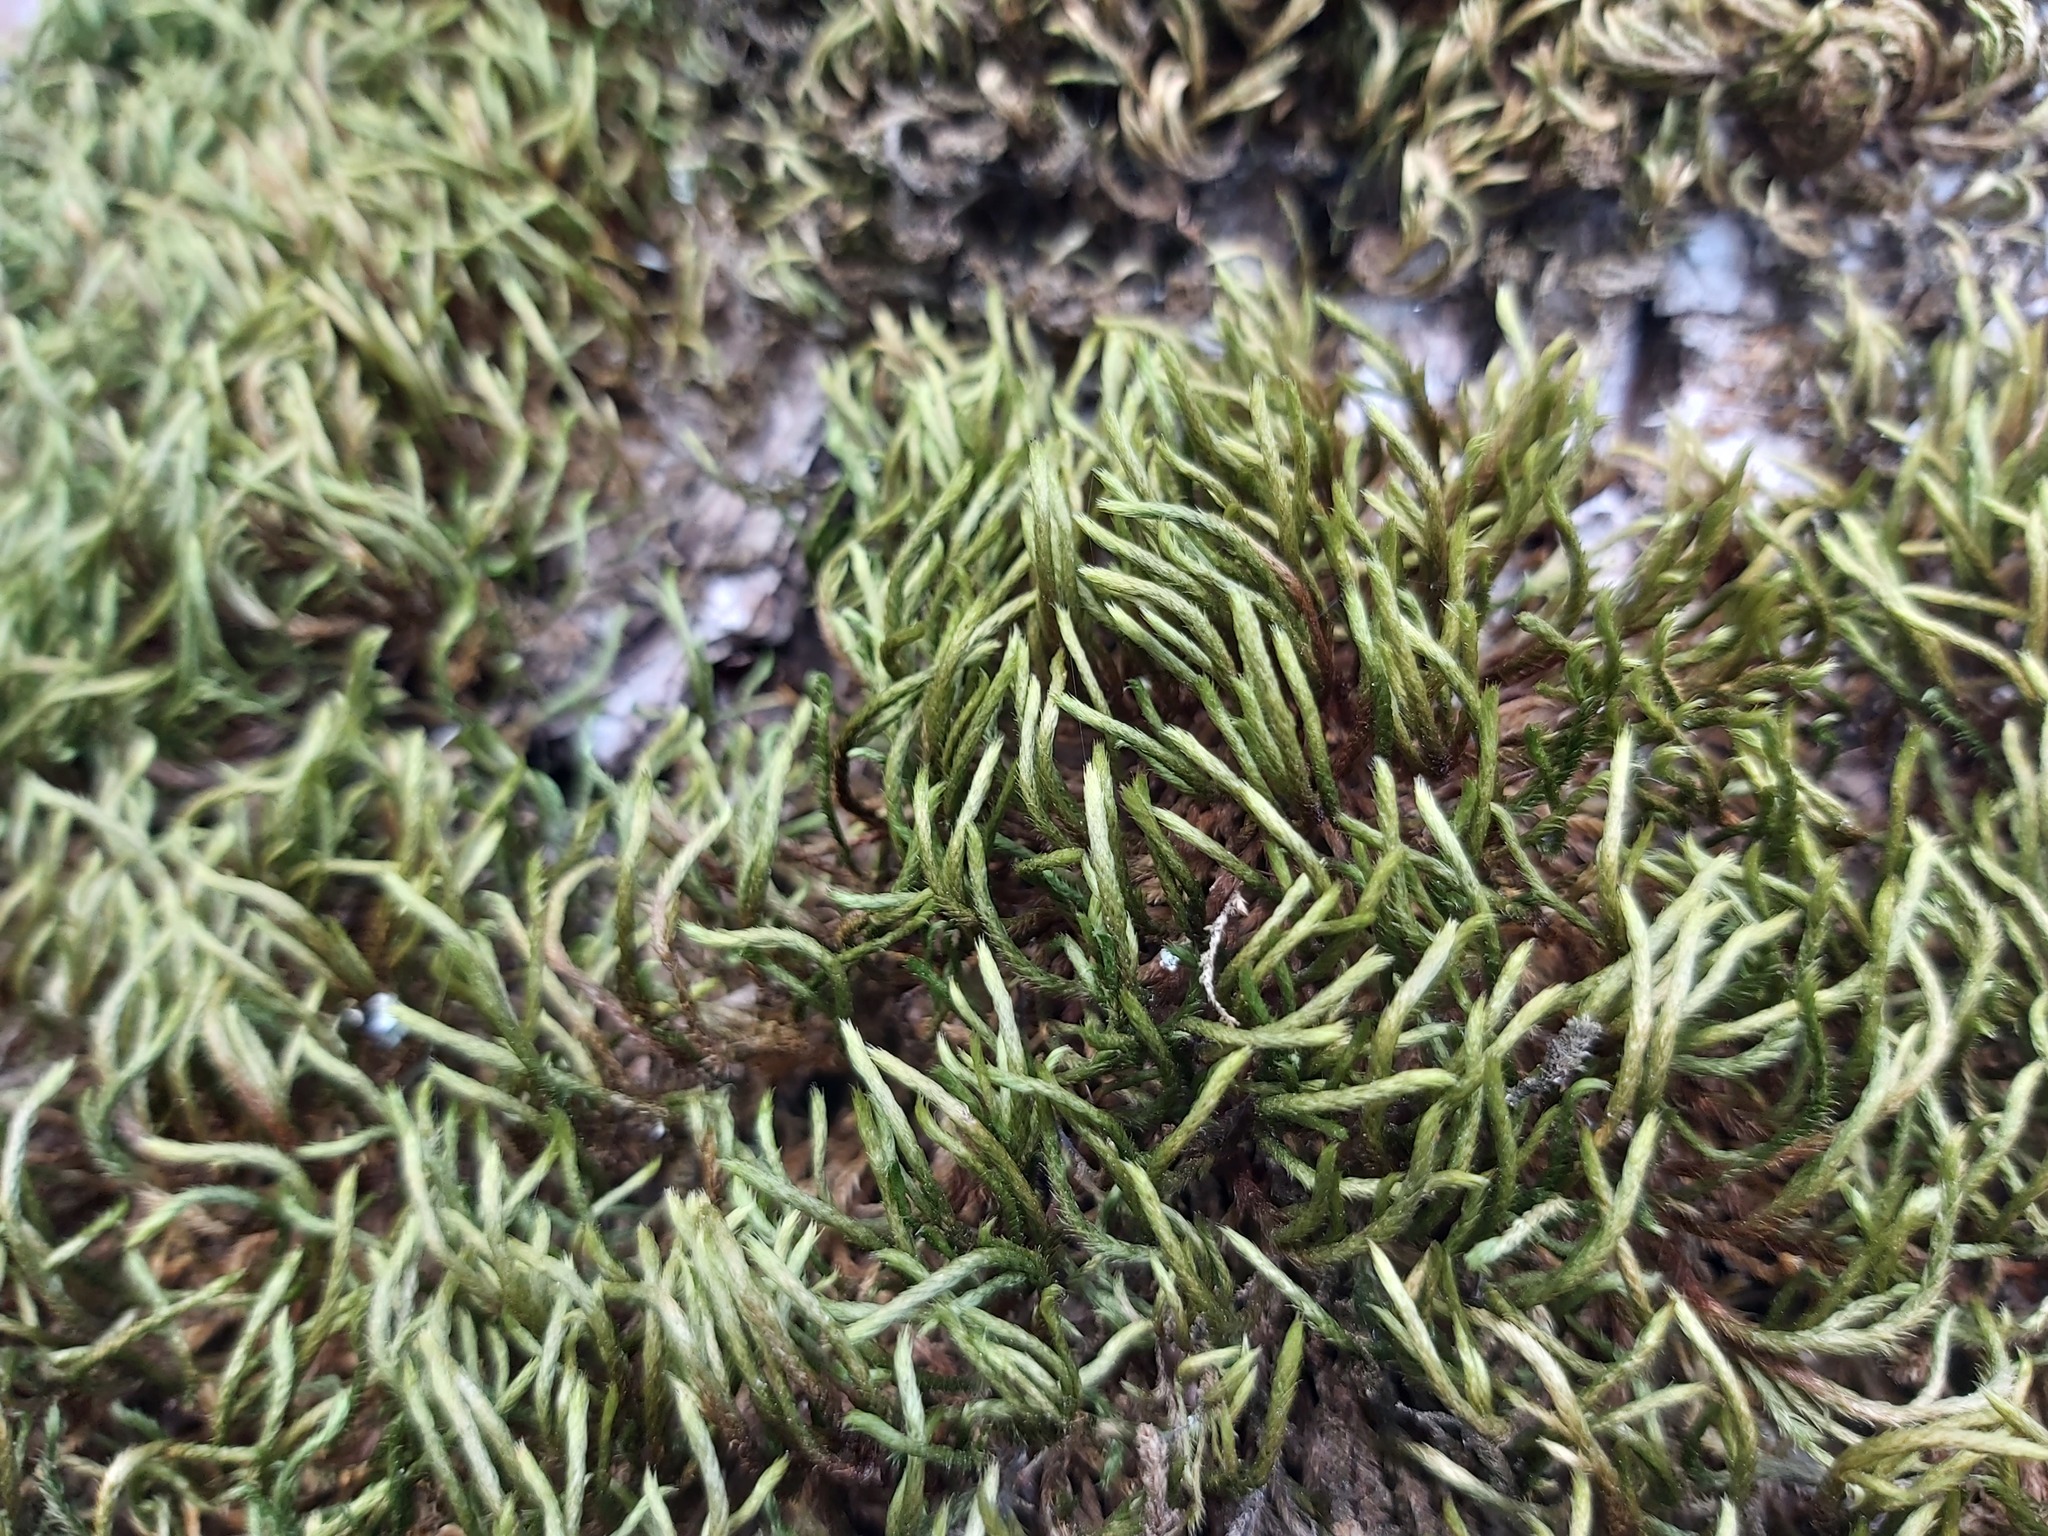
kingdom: Plantae
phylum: Bryophyta
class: Bryopsida
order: Hypnales
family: Leucodontaceae
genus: Leucodon
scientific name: Leucodon sciuroides
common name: Squirrel-tail moss
